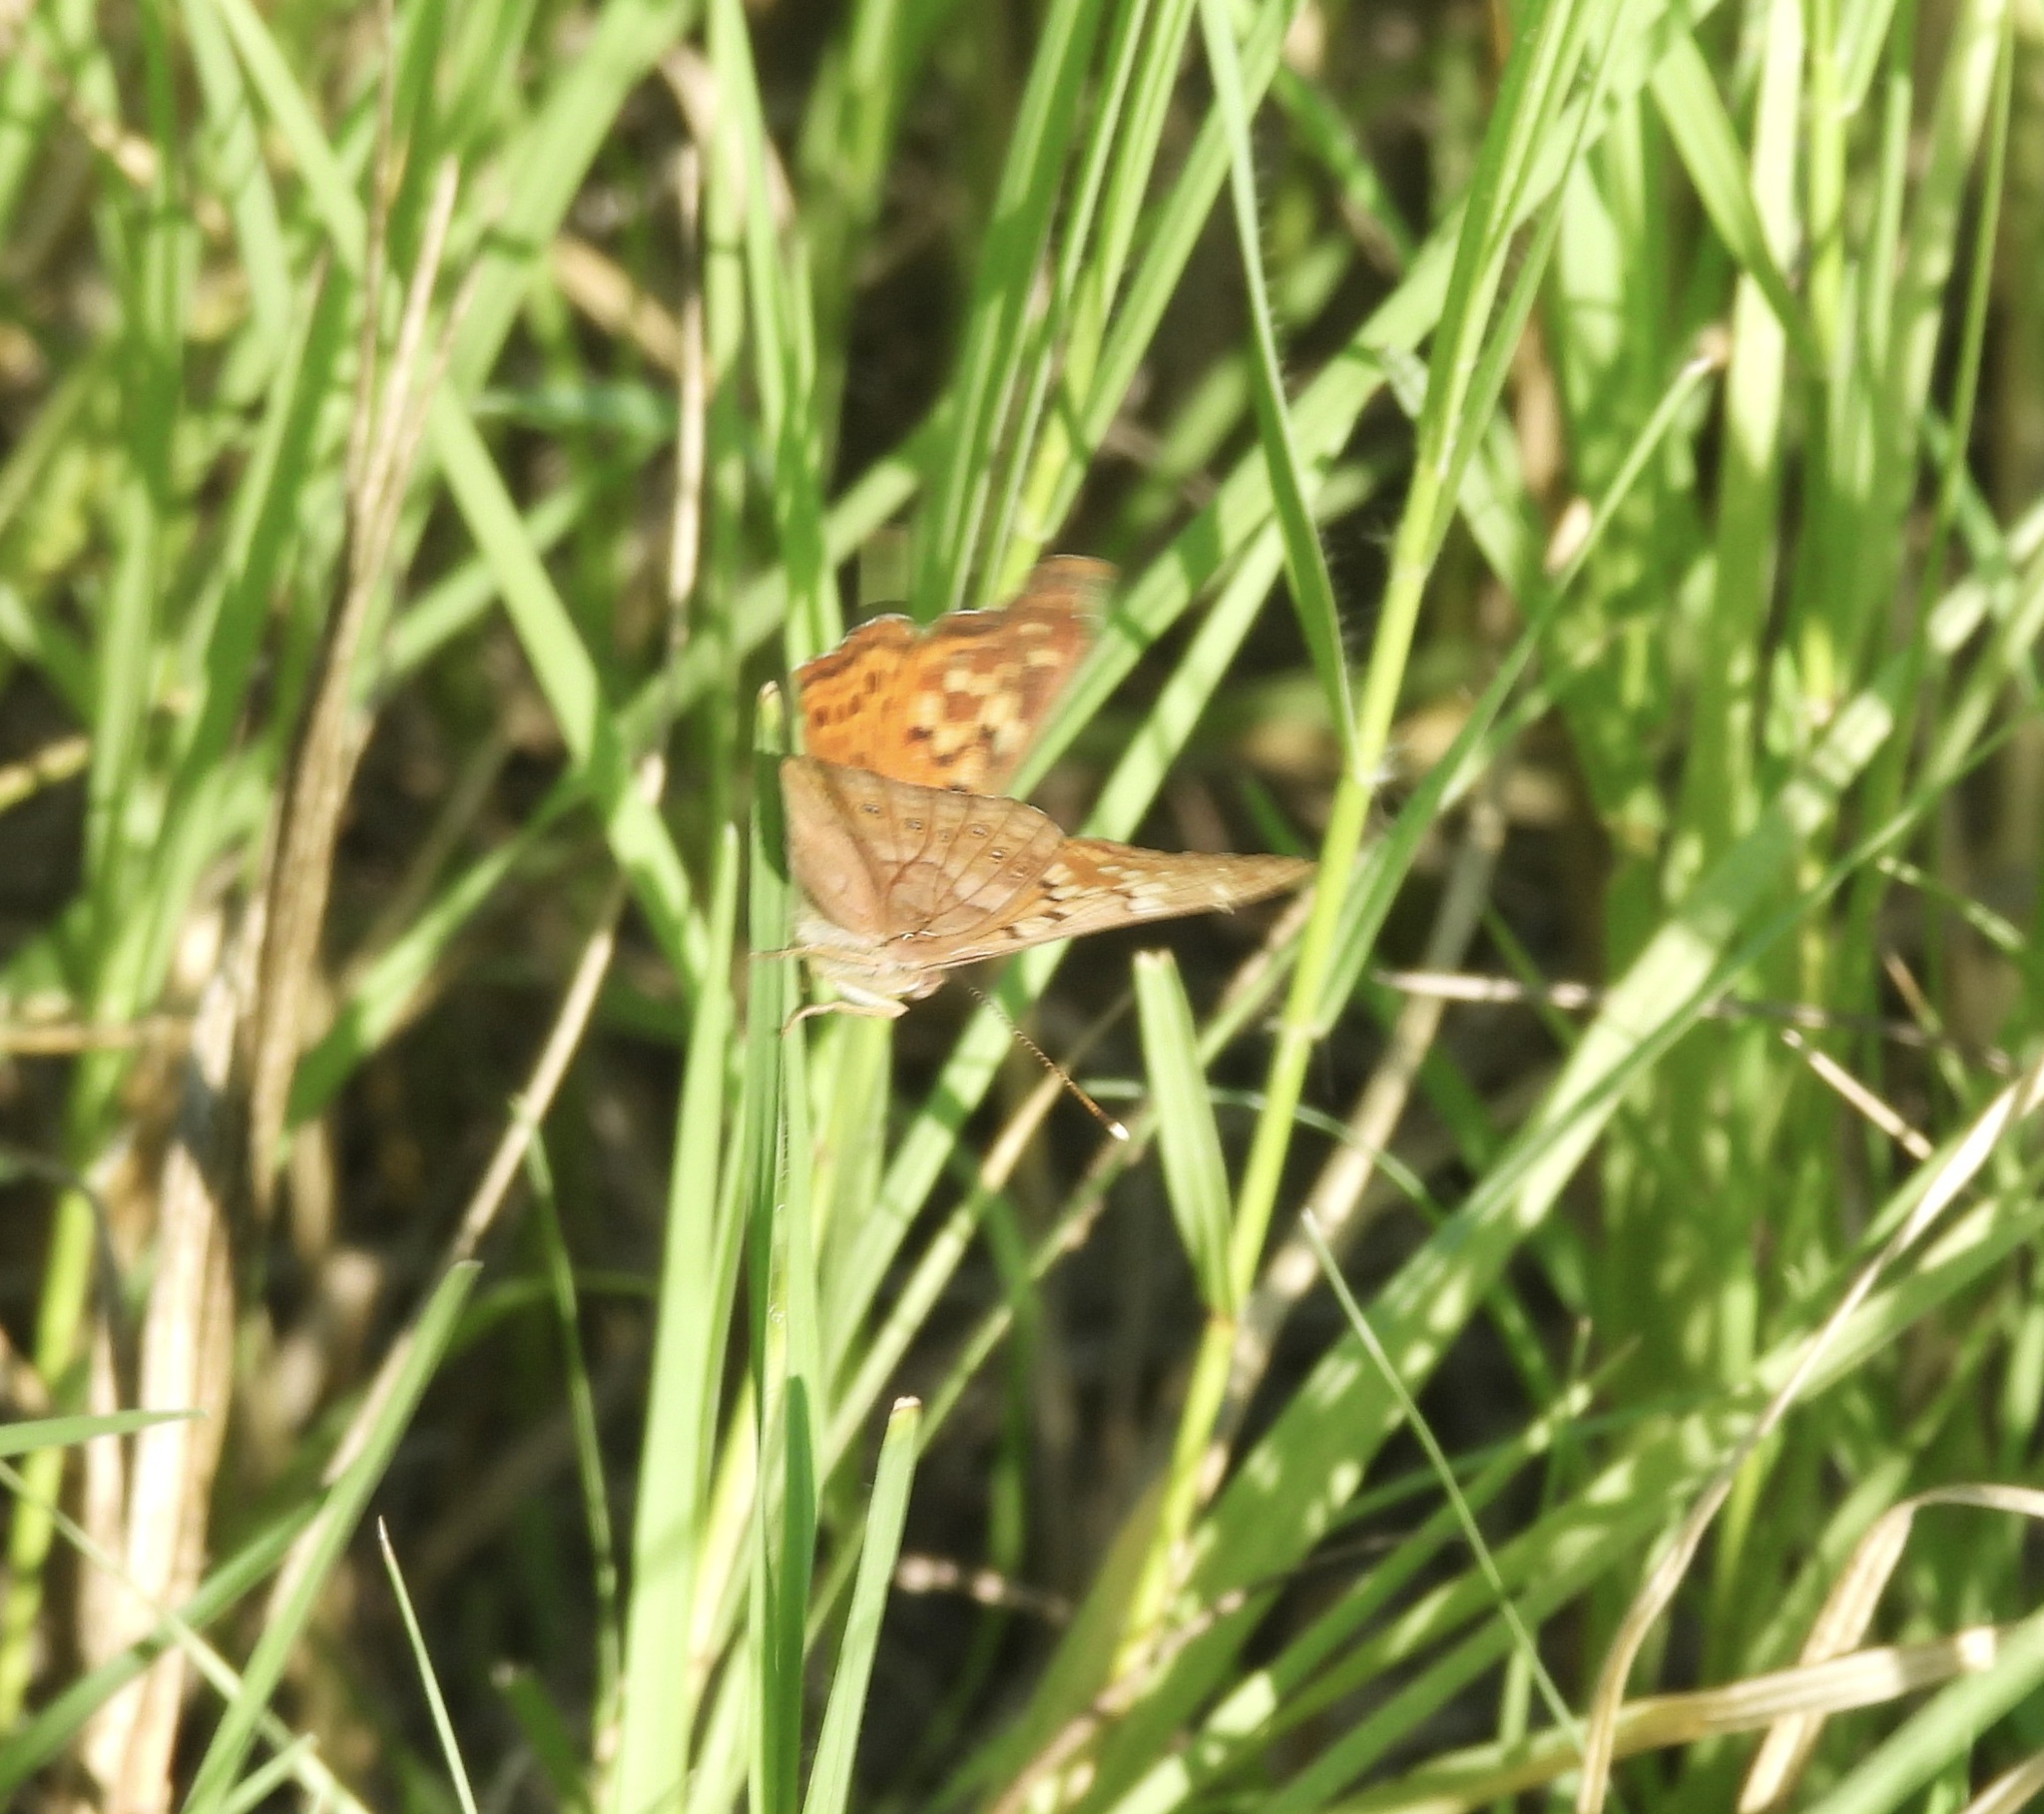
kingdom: Animalia
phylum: Arthropoda
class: Insecta
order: Lepidoptera
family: Nymphalidae
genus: Asterocampa
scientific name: Asterocampa clyton
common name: Tawny emperor
